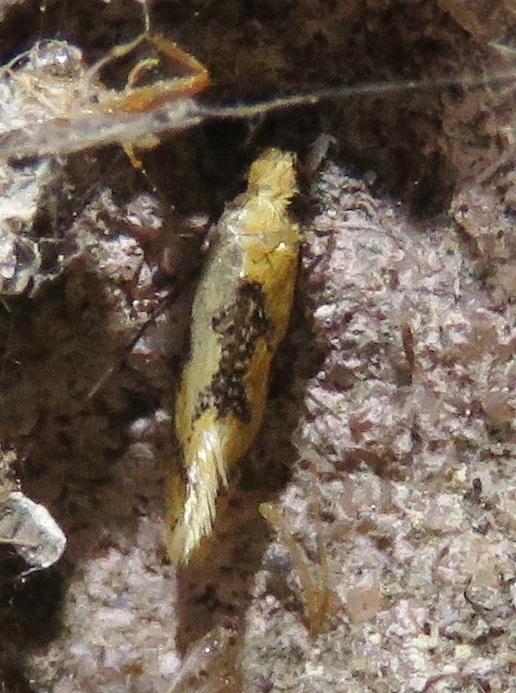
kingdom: Animalia
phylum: Arthropoda
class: Insecta
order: Lepidoptera
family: Meessiidae
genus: Hybroma
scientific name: Hybroma servulella
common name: Yellow wave moth
